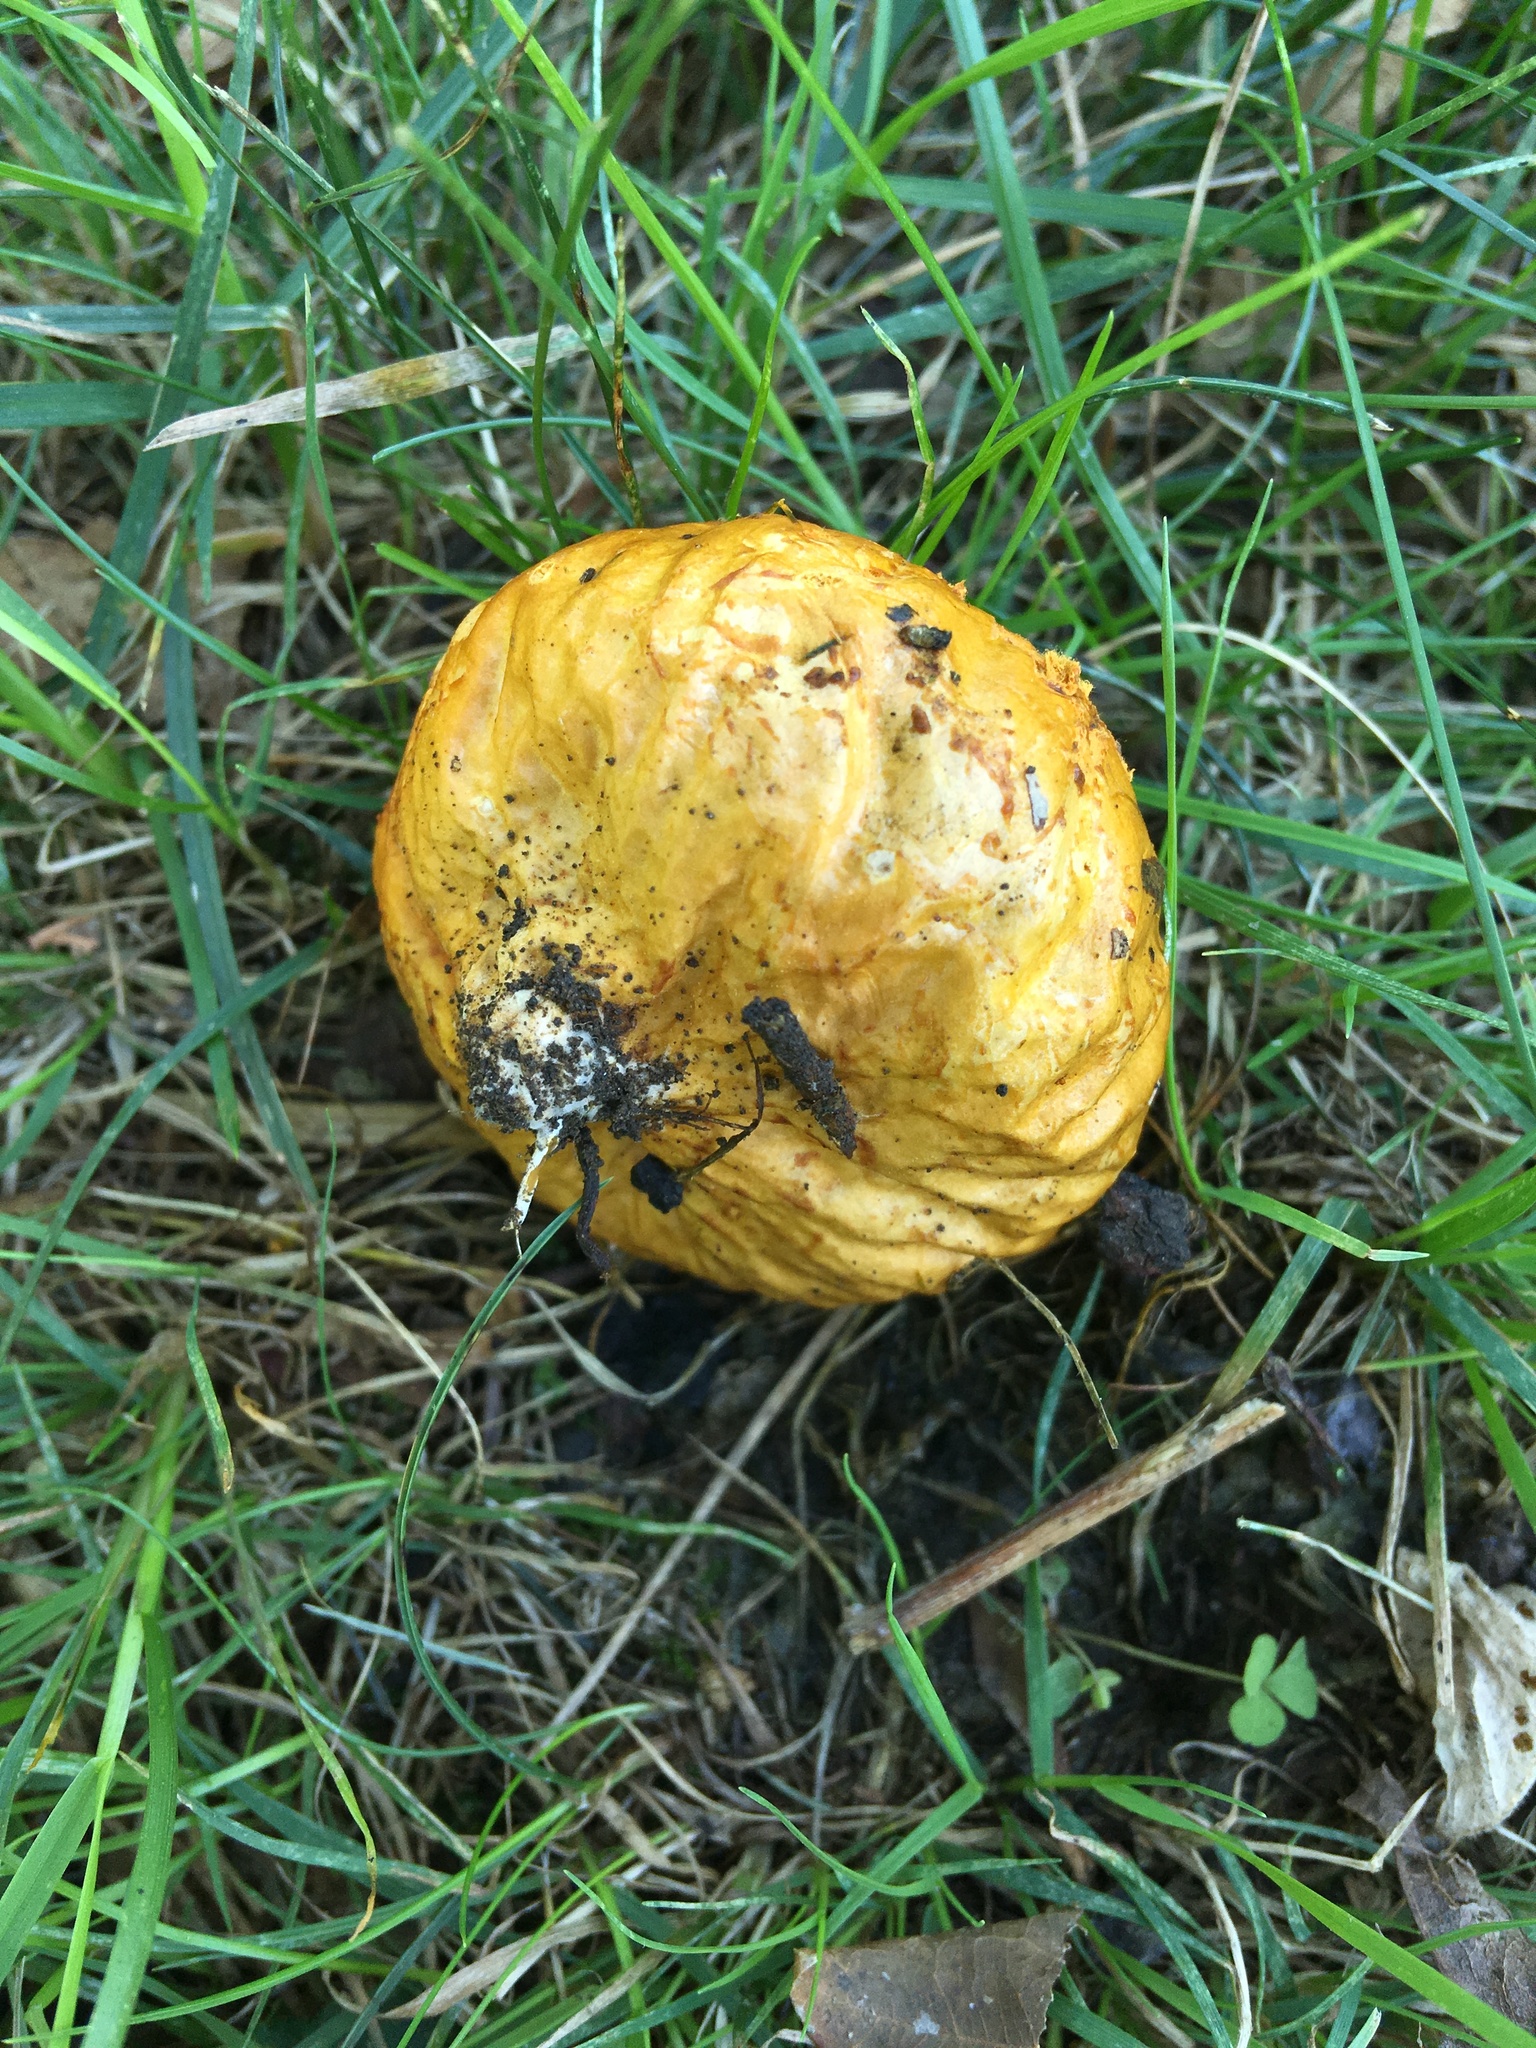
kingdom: Fungi
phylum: Basidiomycota
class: Agaricomycetes
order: Agaricales
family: Lycoperdaceae
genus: Calvatia
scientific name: Calvatia candida
